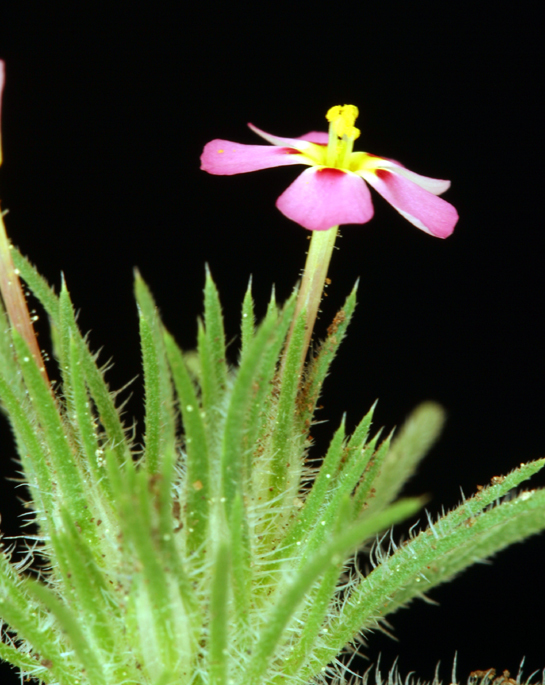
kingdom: Plantae
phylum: Tracheophyta
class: Magnoliopsida
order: Ericales
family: Polemoniaceae
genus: Leptosiphon
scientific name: Leptosiphon ciliatus
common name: Whiskerbrush
